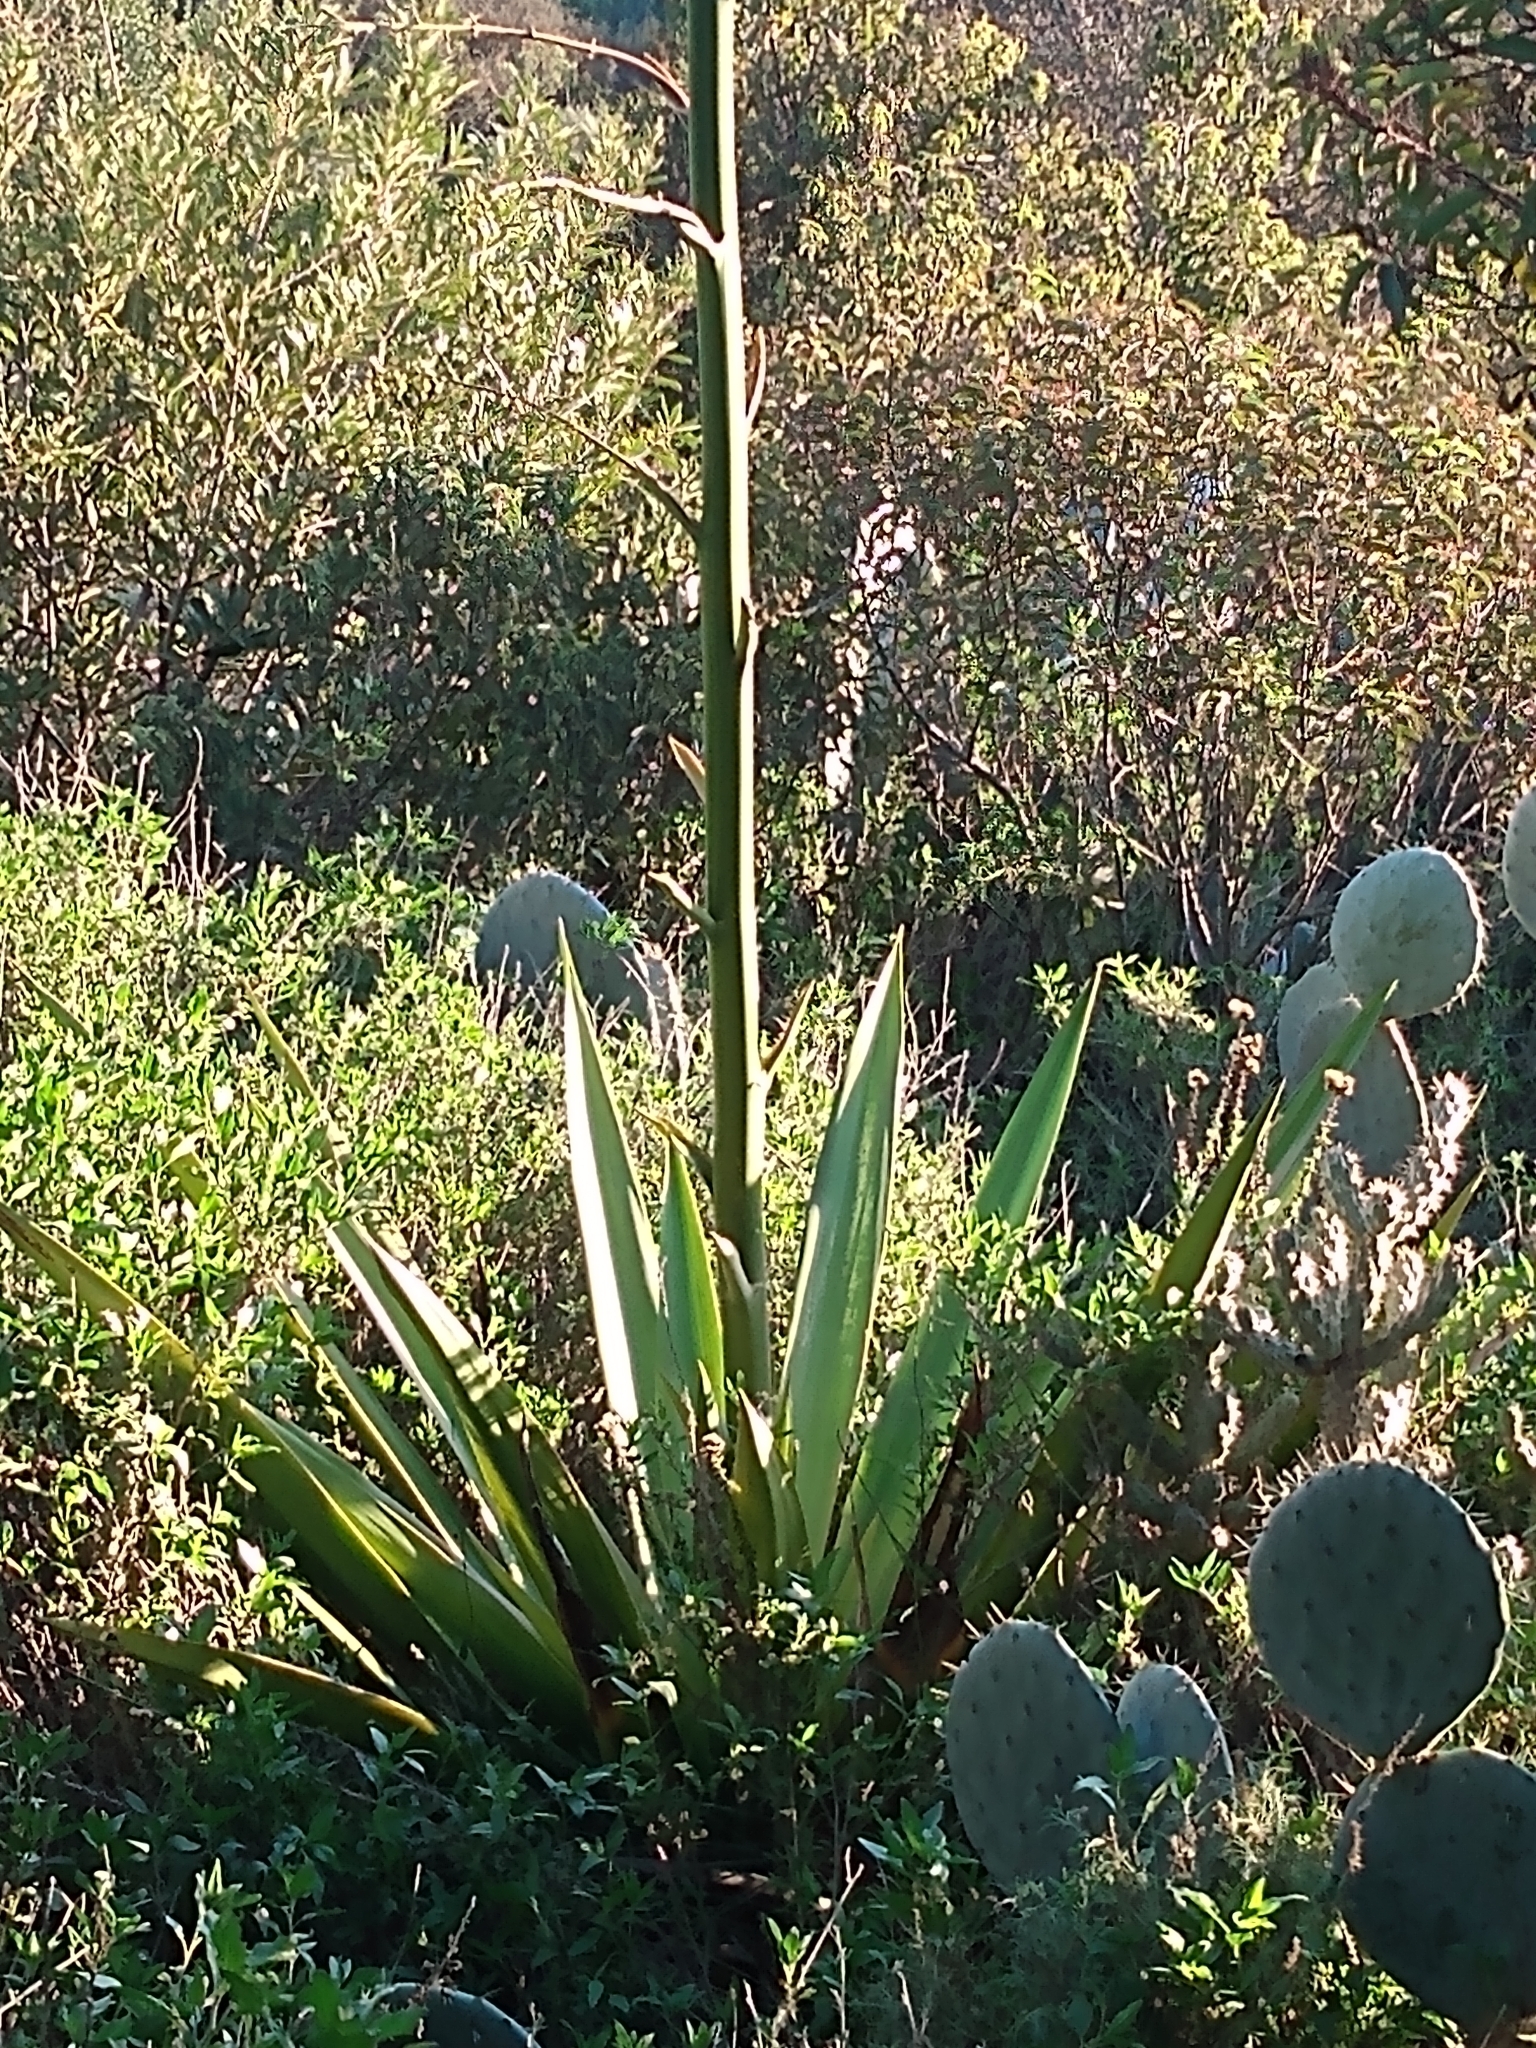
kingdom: Plantae
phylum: Tracheophyta
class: Liliopsida
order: Asparagales
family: Asparagaceae
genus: Furcraea
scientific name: Furcraea foetida
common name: Mauritius hemp
